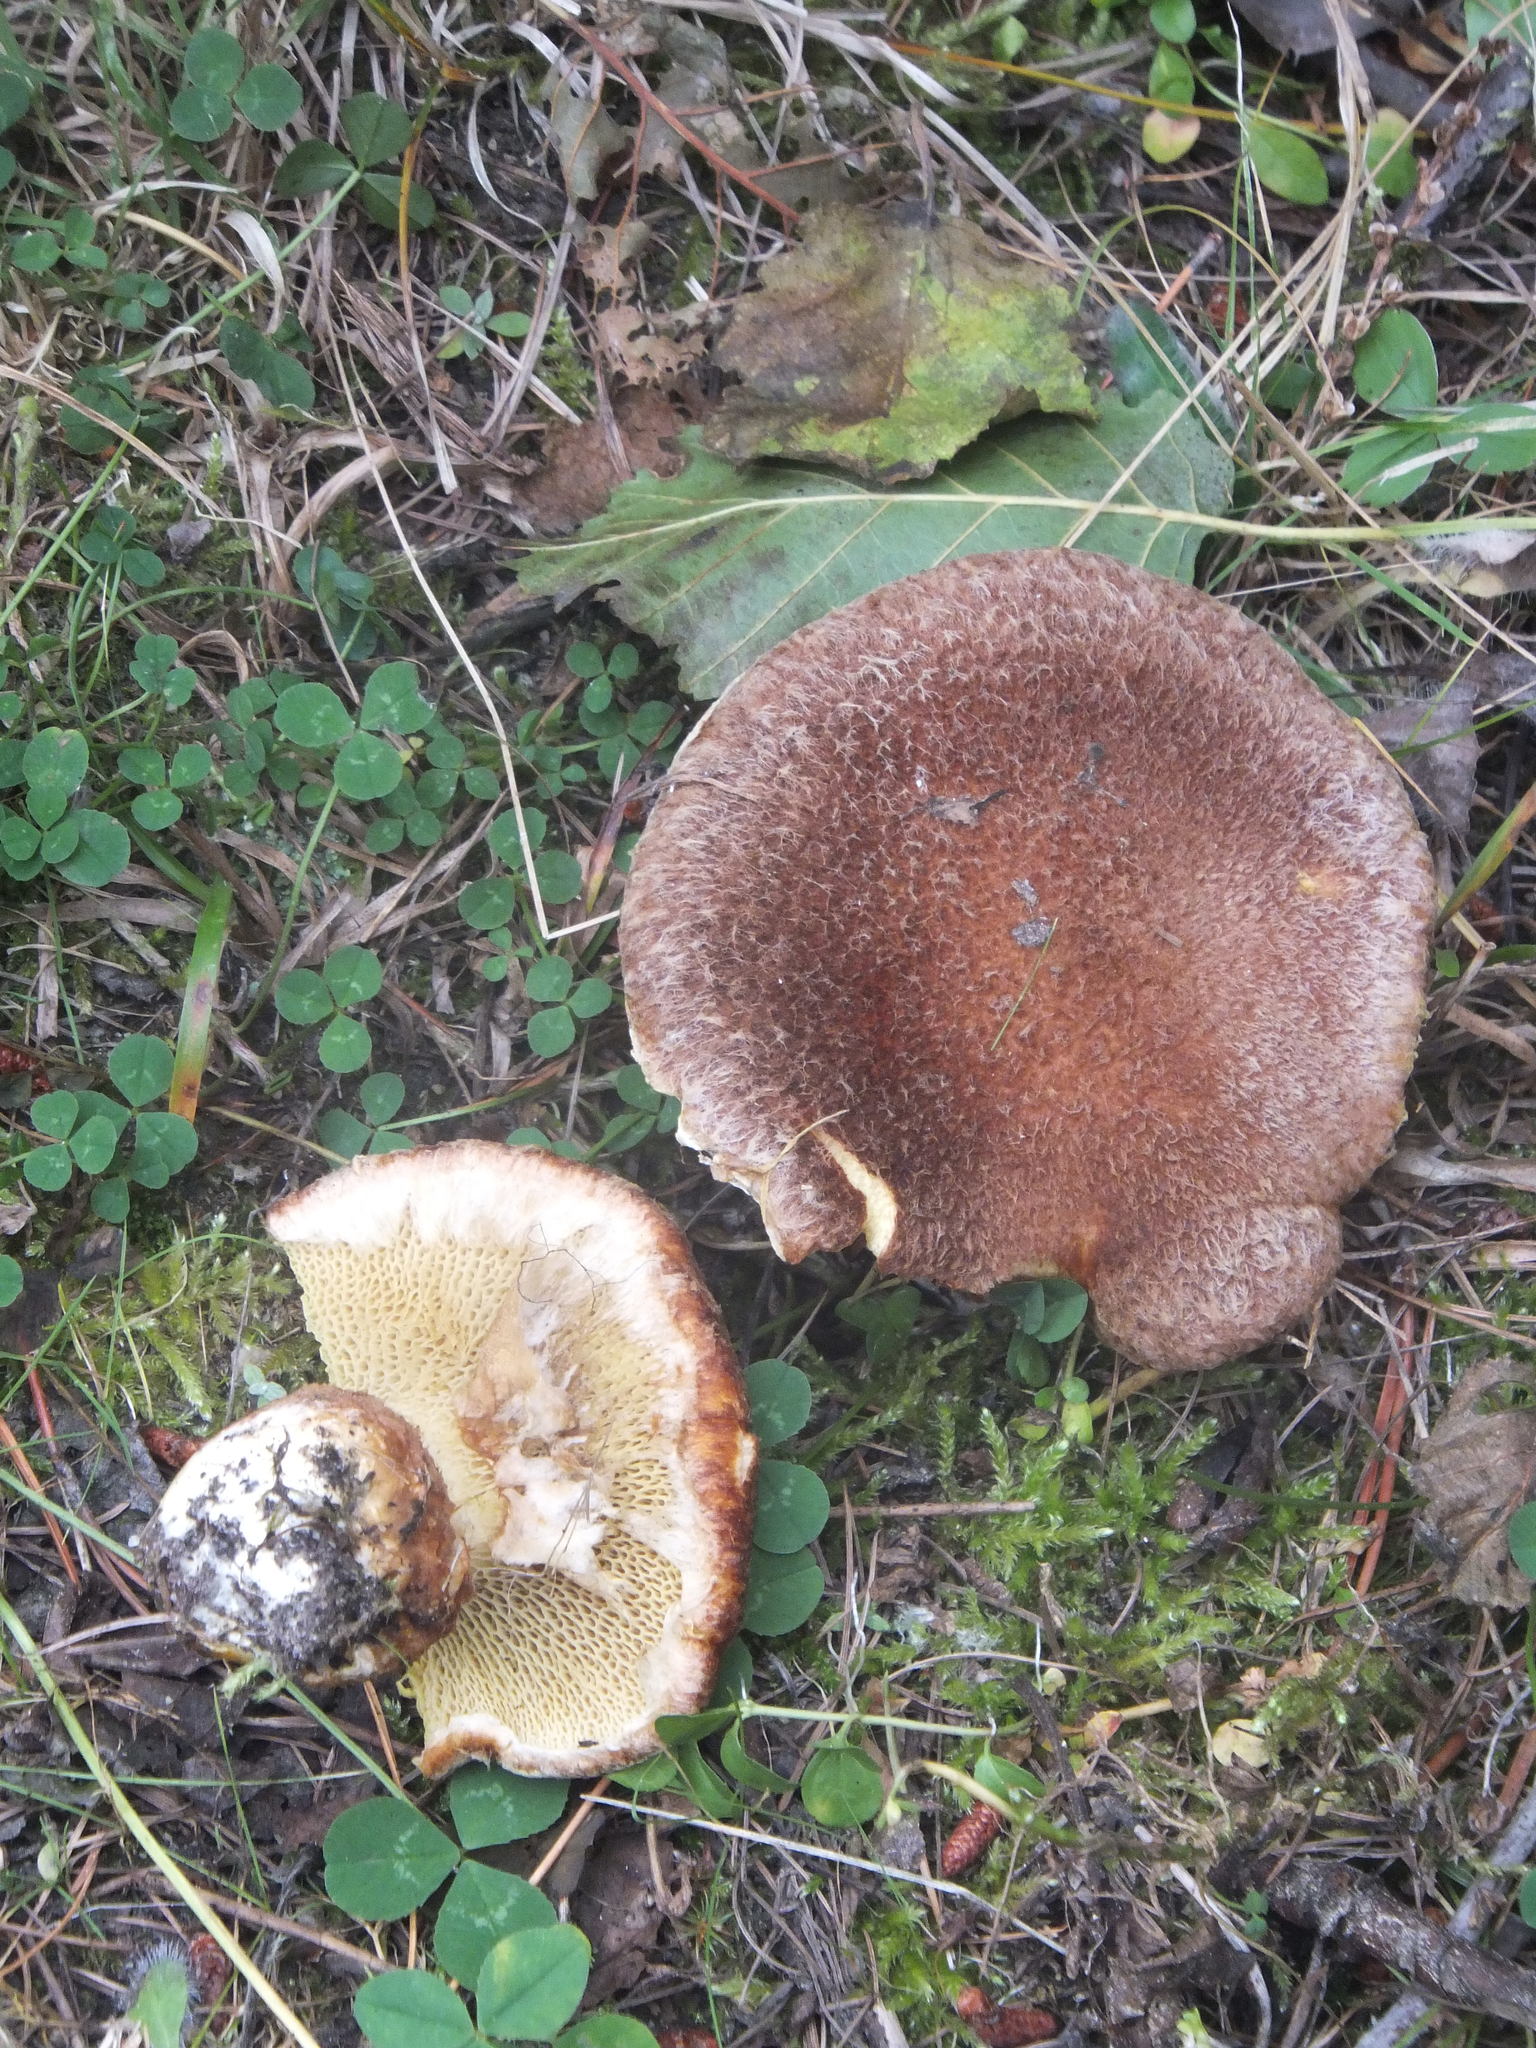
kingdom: Fungi
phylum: Basidiomycota
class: Agaricomycetes
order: Boletales
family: Suillaceae
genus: Boletinus
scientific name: Boletinus ampliporus
